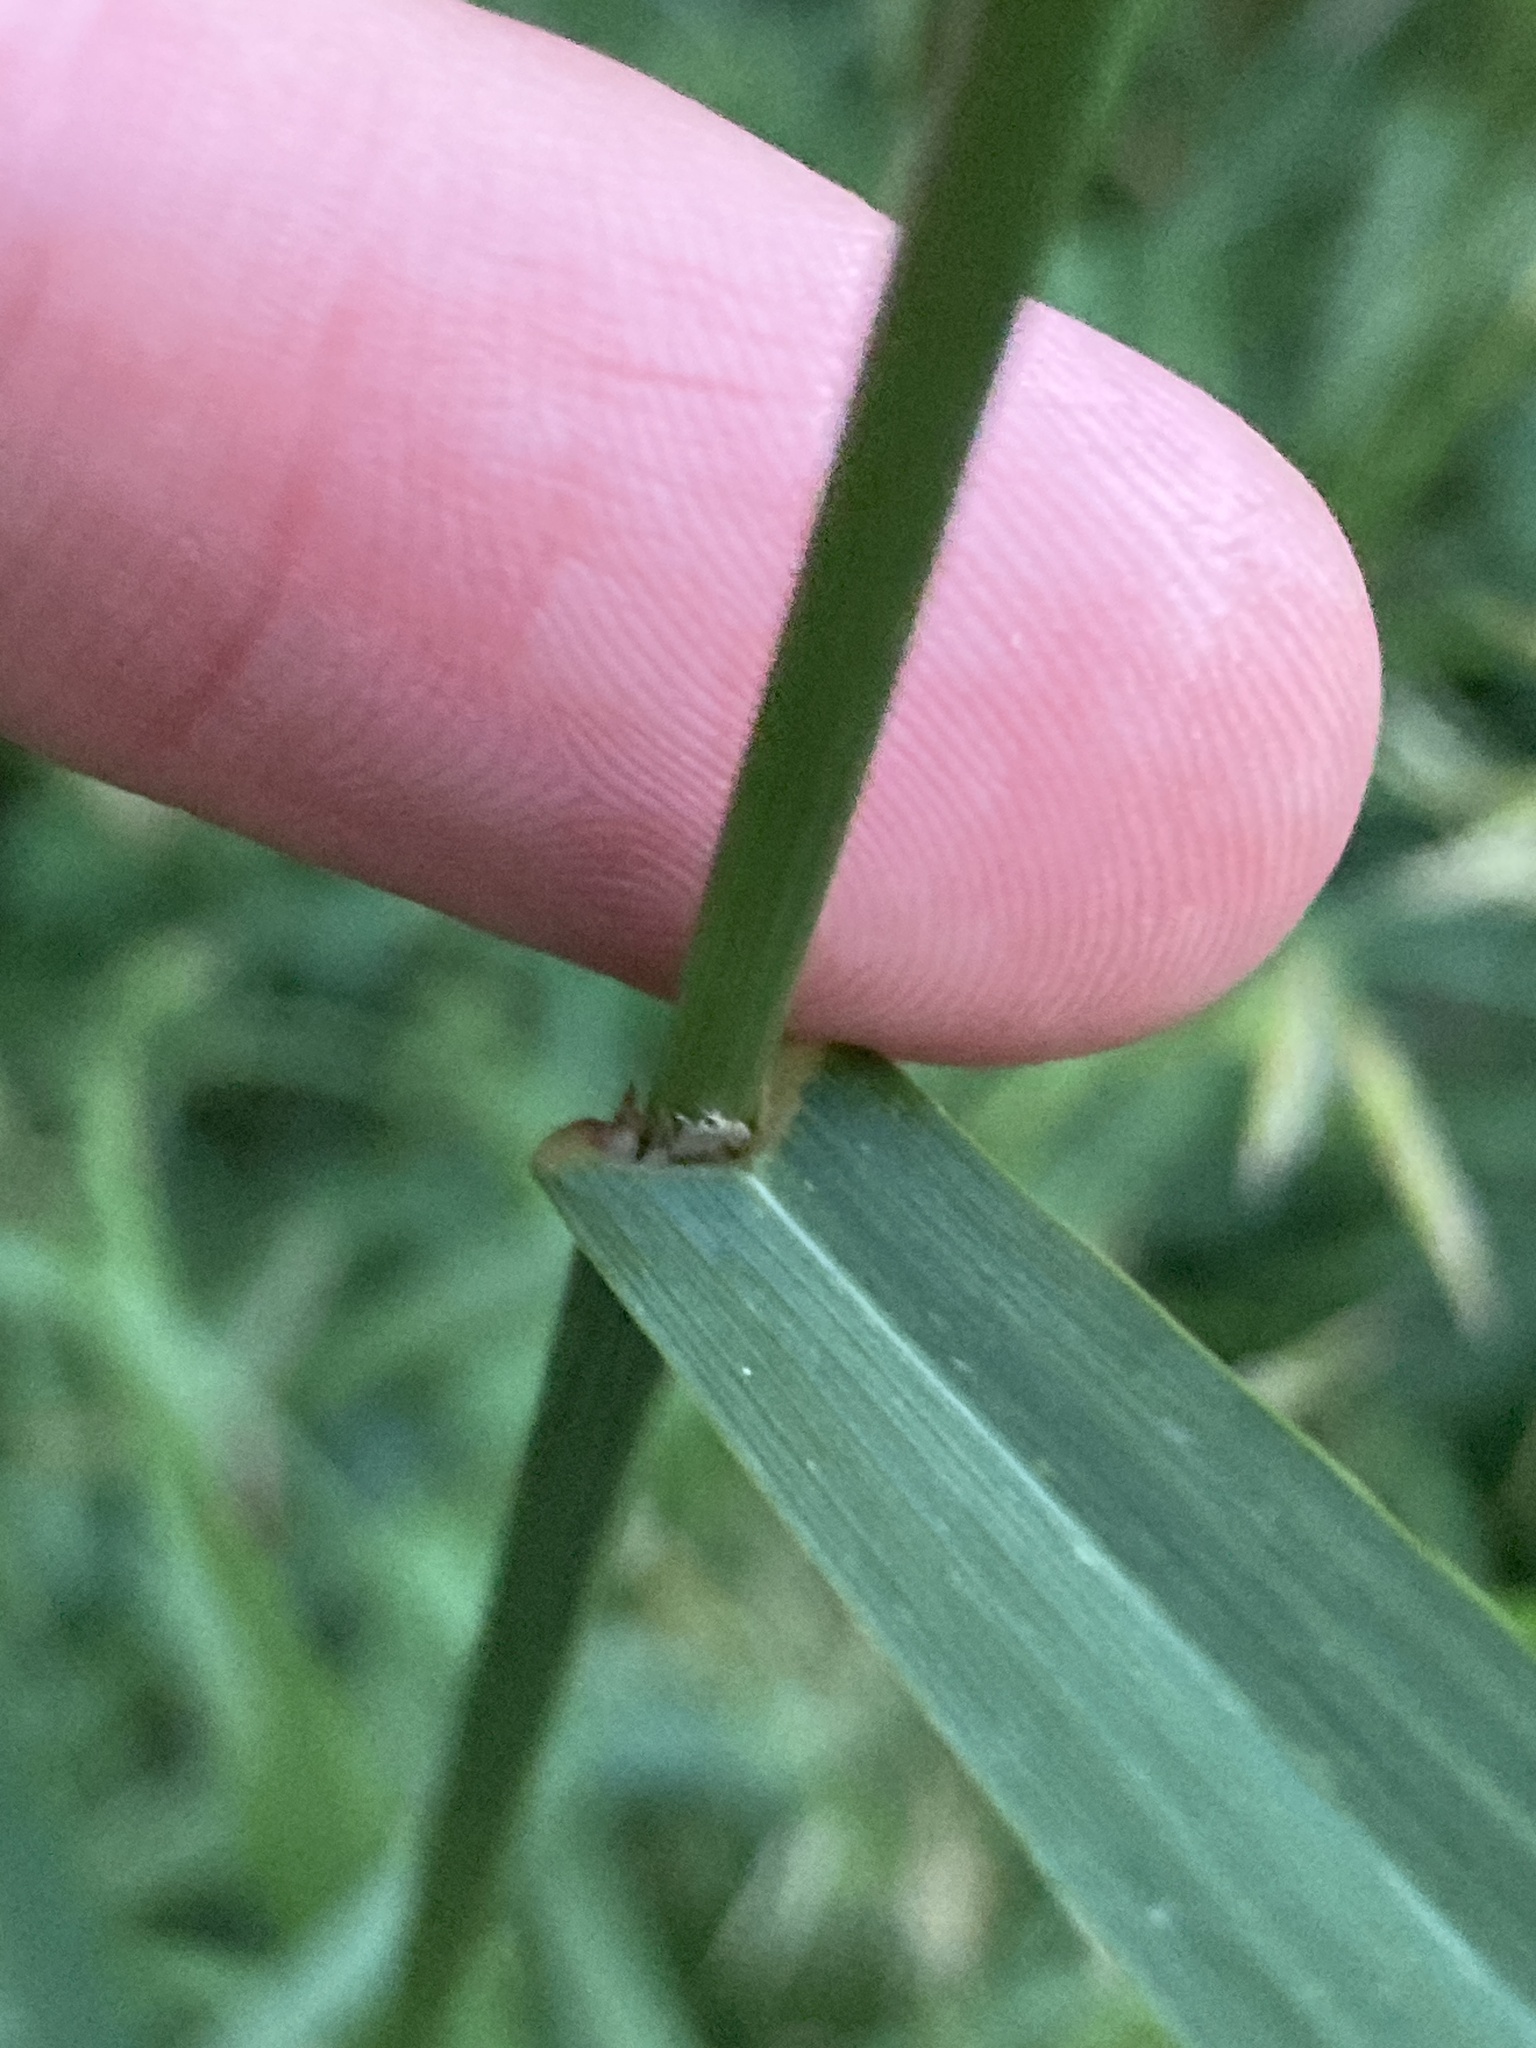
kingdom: Plantae
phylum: Tracheophyta
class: Liliopsida
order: Poales
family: Poaceae
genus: Bromus
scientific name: Bromus inermis
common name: Smooth brome
